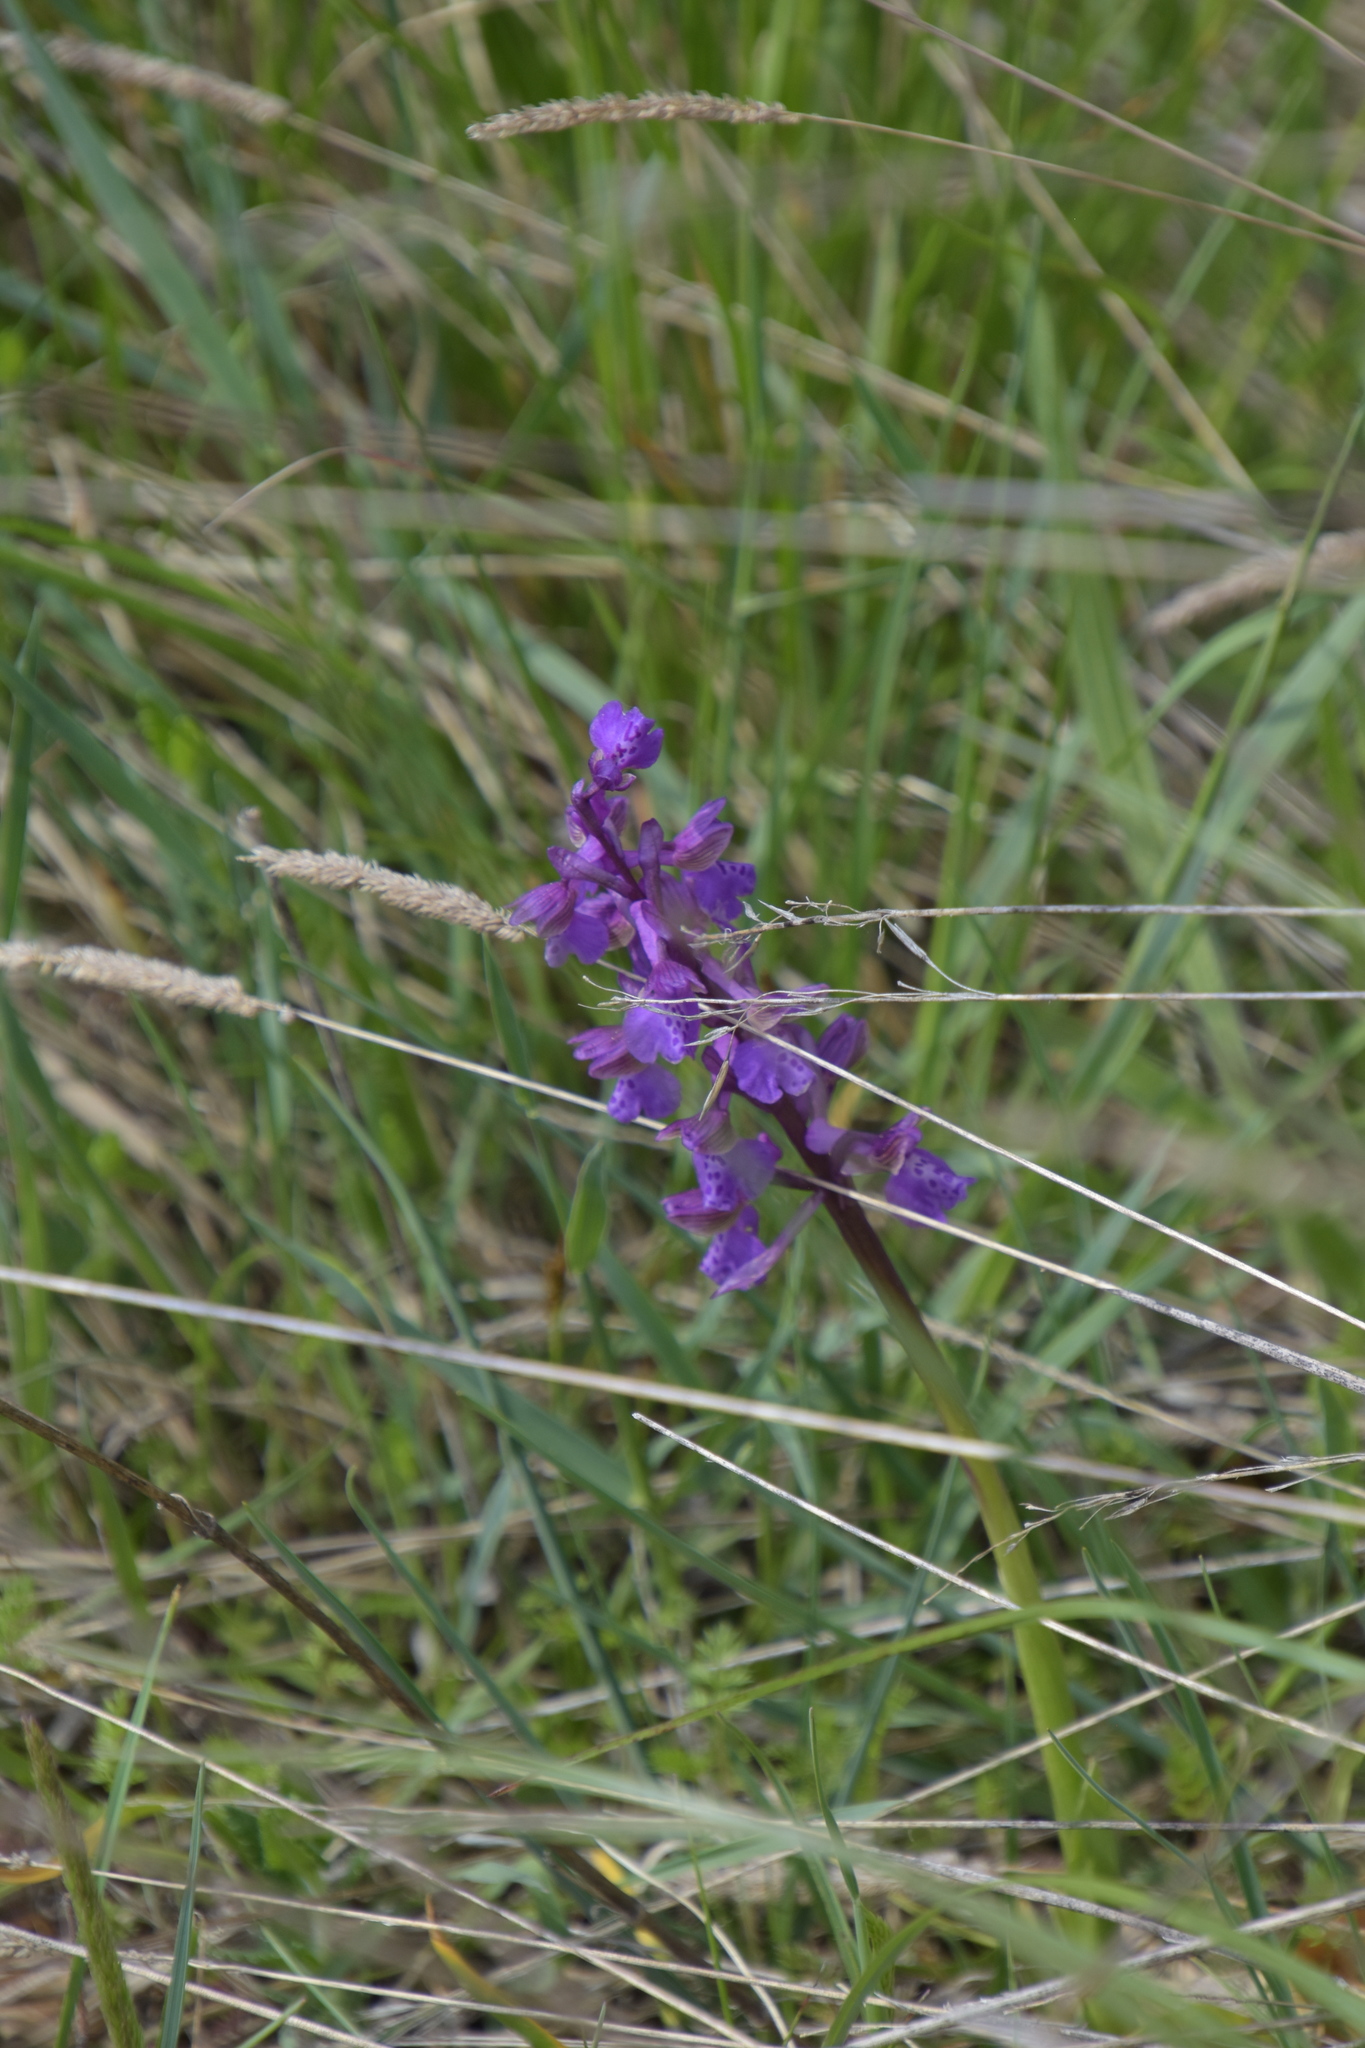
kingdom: Plantae
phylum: Tracheophyta
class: Liliopsida
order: Asparagales
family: Orchidaceae
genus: Anacamptis
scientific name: Anacamptis morio
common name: Green-winged orchid
